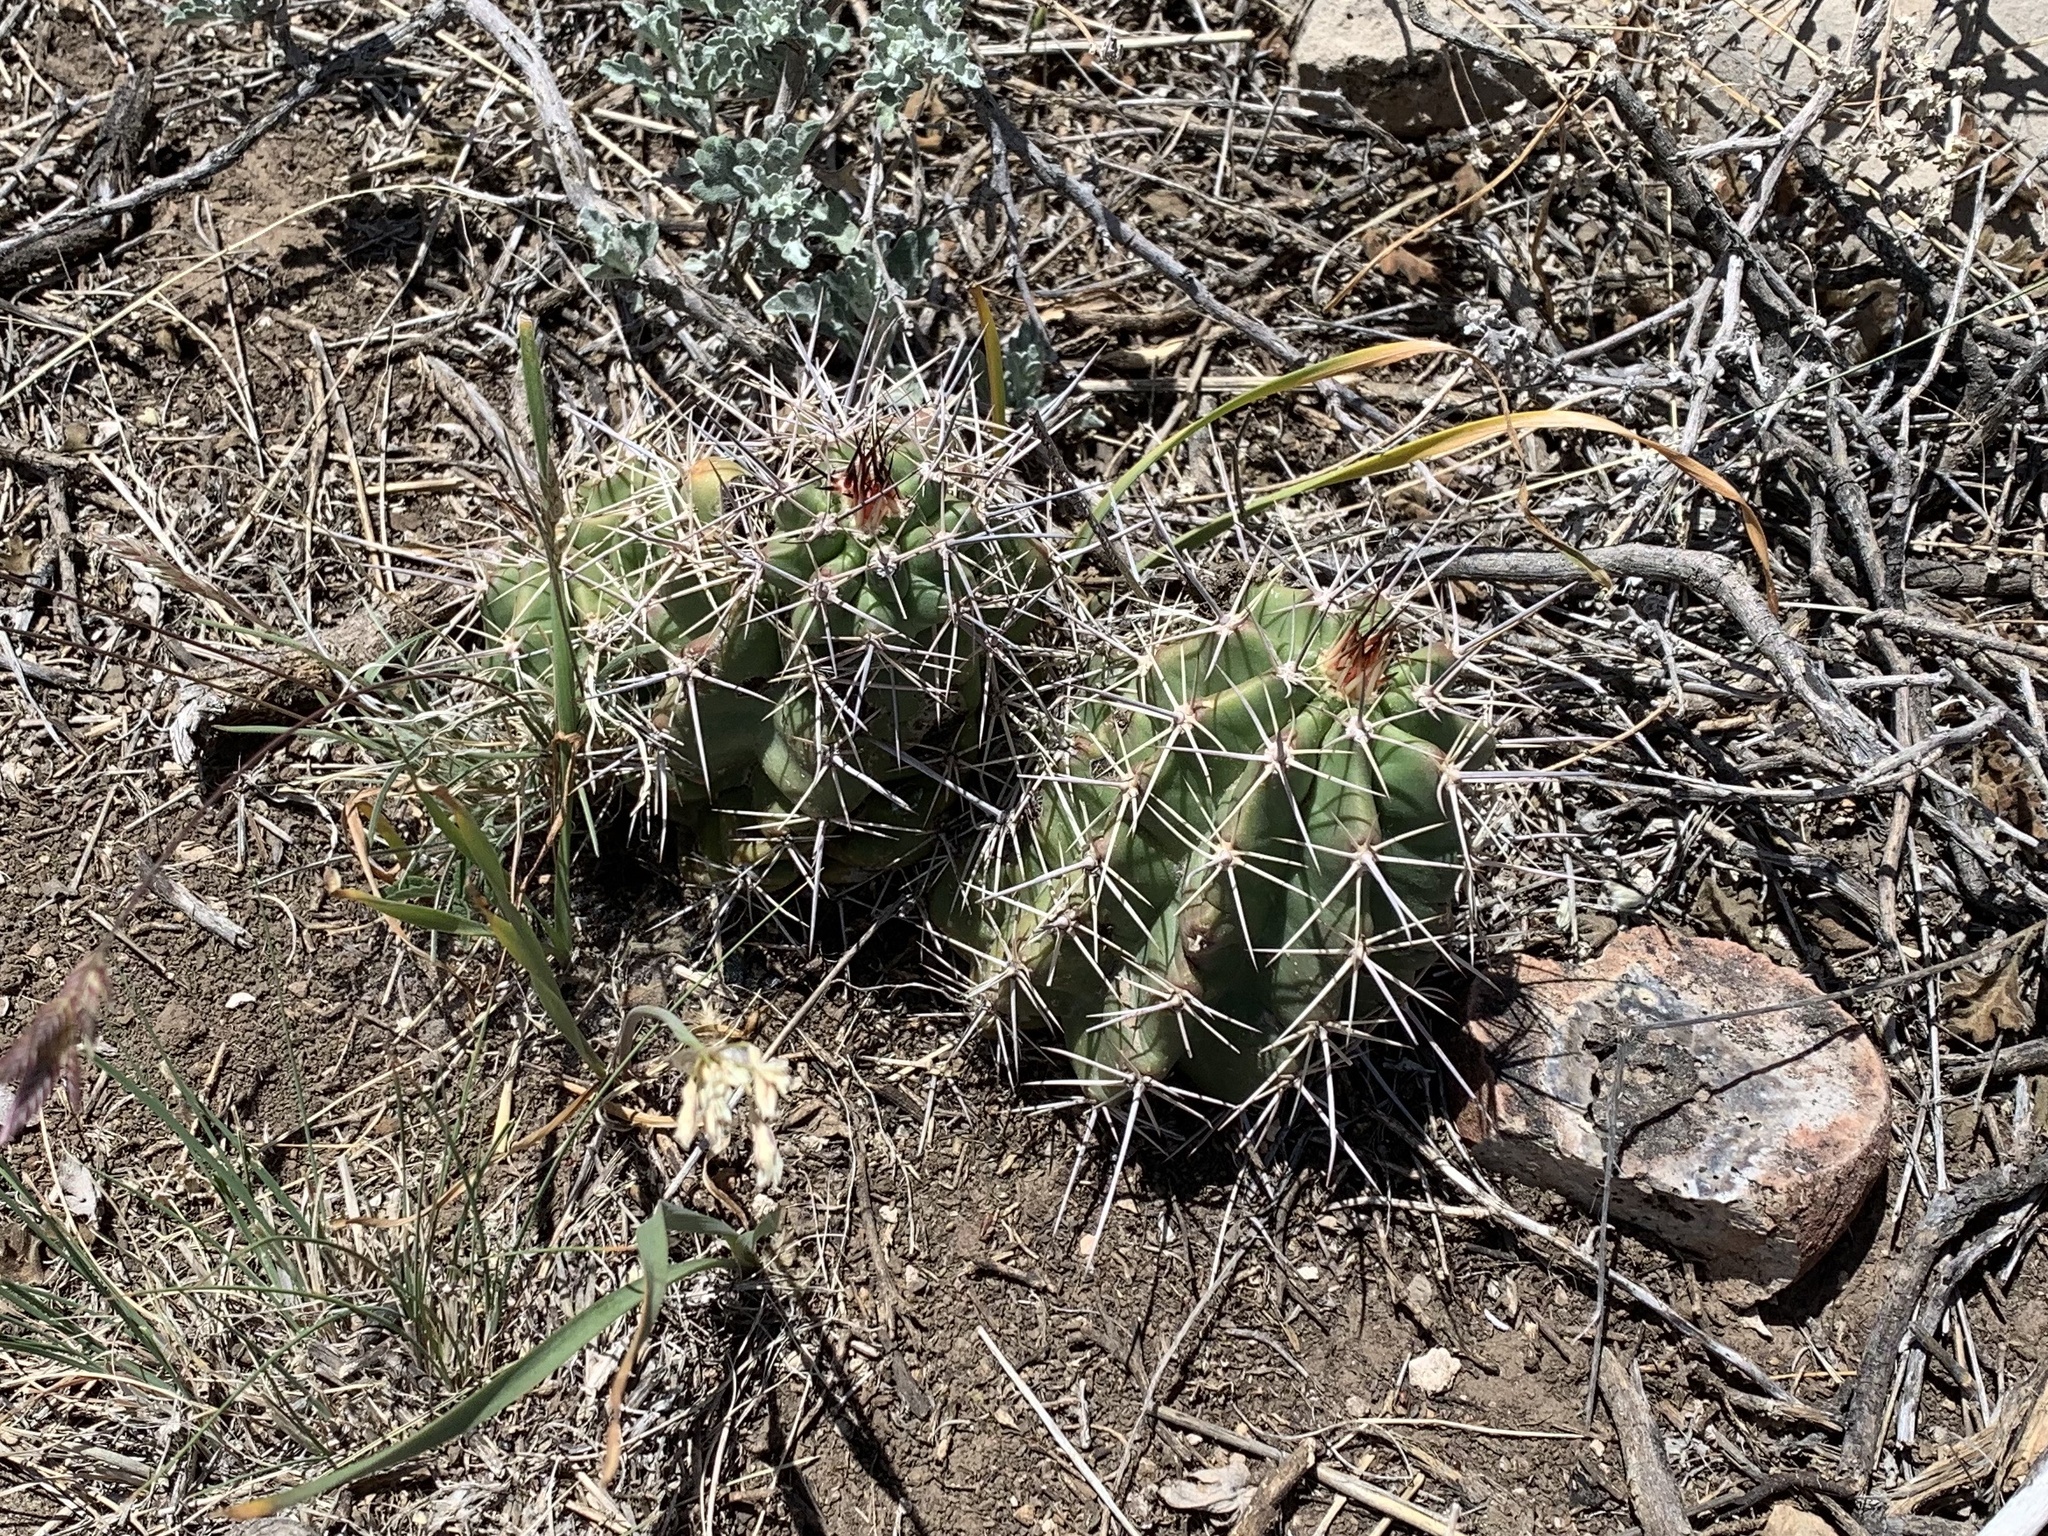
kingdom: Plantae
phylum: Tracheophyta
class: Magnoliopsida
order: Caryophyllales
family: Cactaceae
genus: Echinocereus
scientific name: Echinocereus coccineus
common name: Scarlet hedgehog cactus
